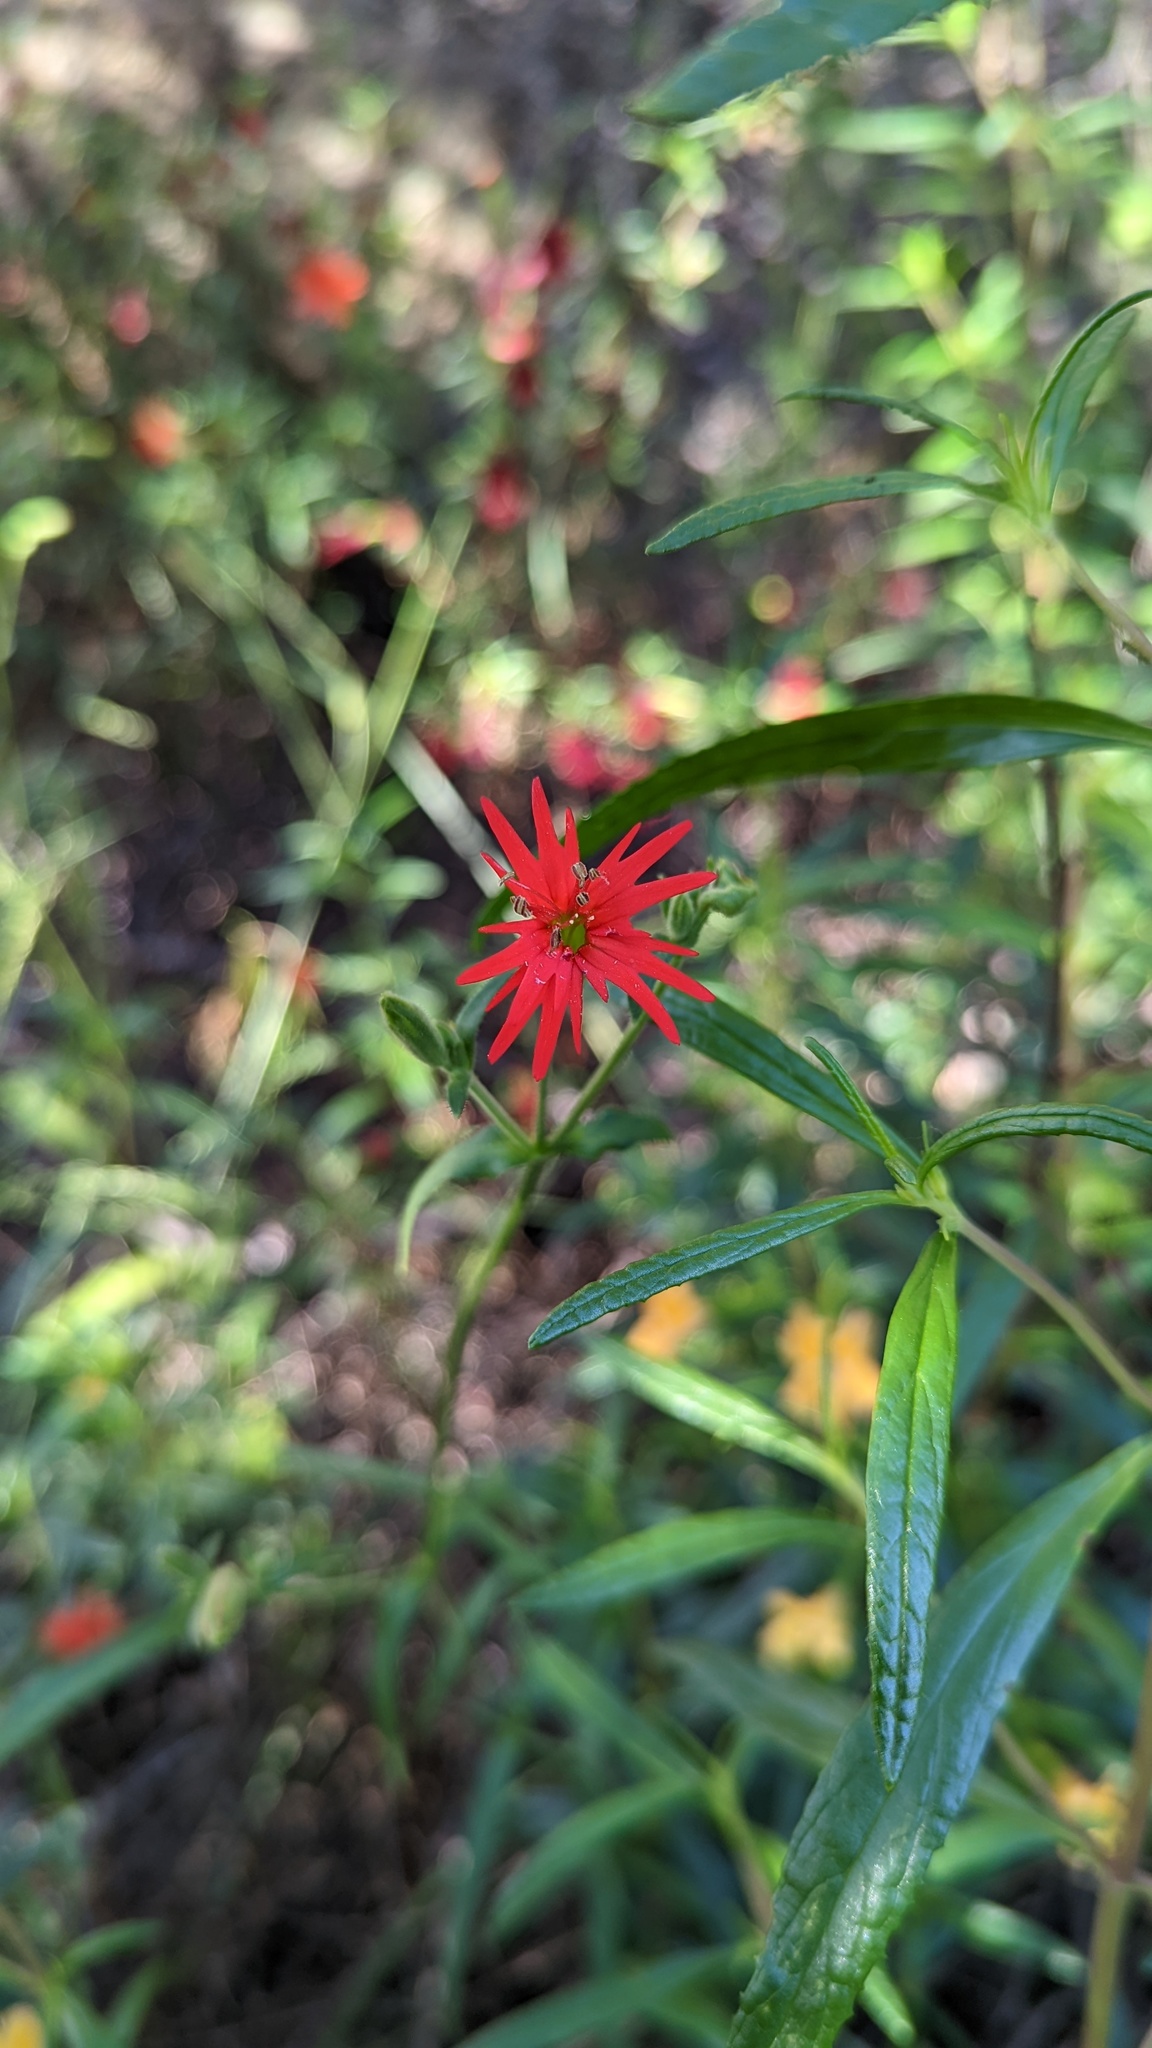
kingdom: Plantae
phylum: Tracheophyta
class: Magnoliopsida
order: Caryophyllales
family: Caryophyllaceae
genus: Silene
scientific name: Silene laciniata
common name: Indian-pink
